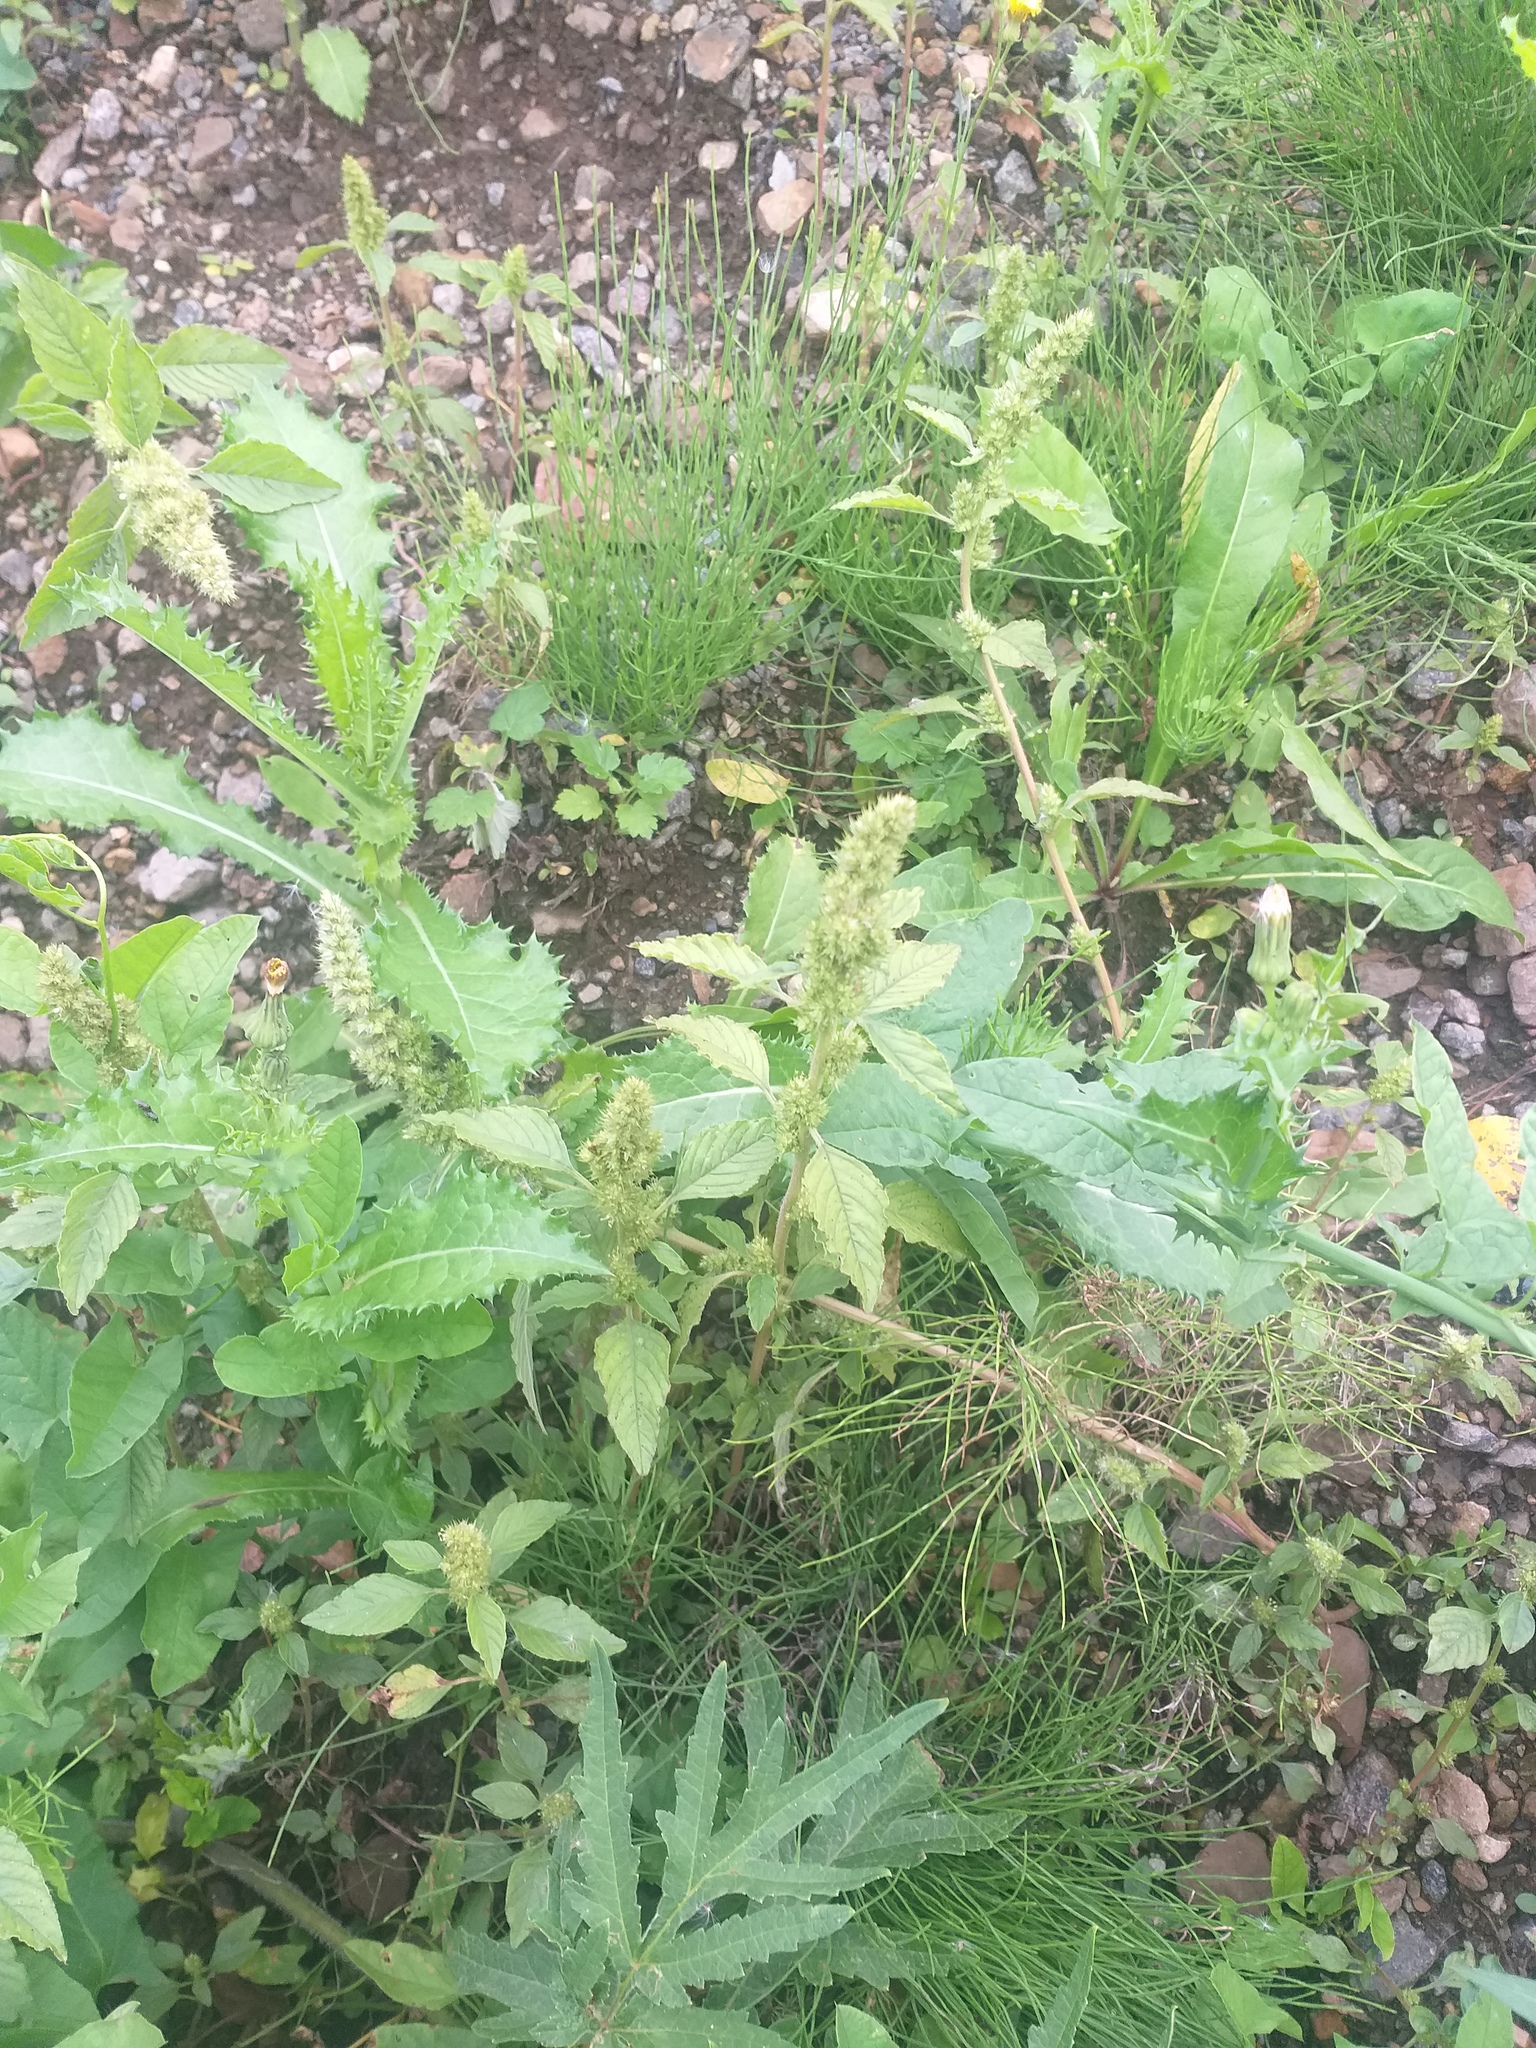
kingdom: Plantae
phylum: Tracheophyta
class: Magnoliopsida
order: Caryophyllales
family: Amaranthaceae
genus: Amaranthus
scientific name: Amaranthus retroflexus
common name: Redroot amaranth
